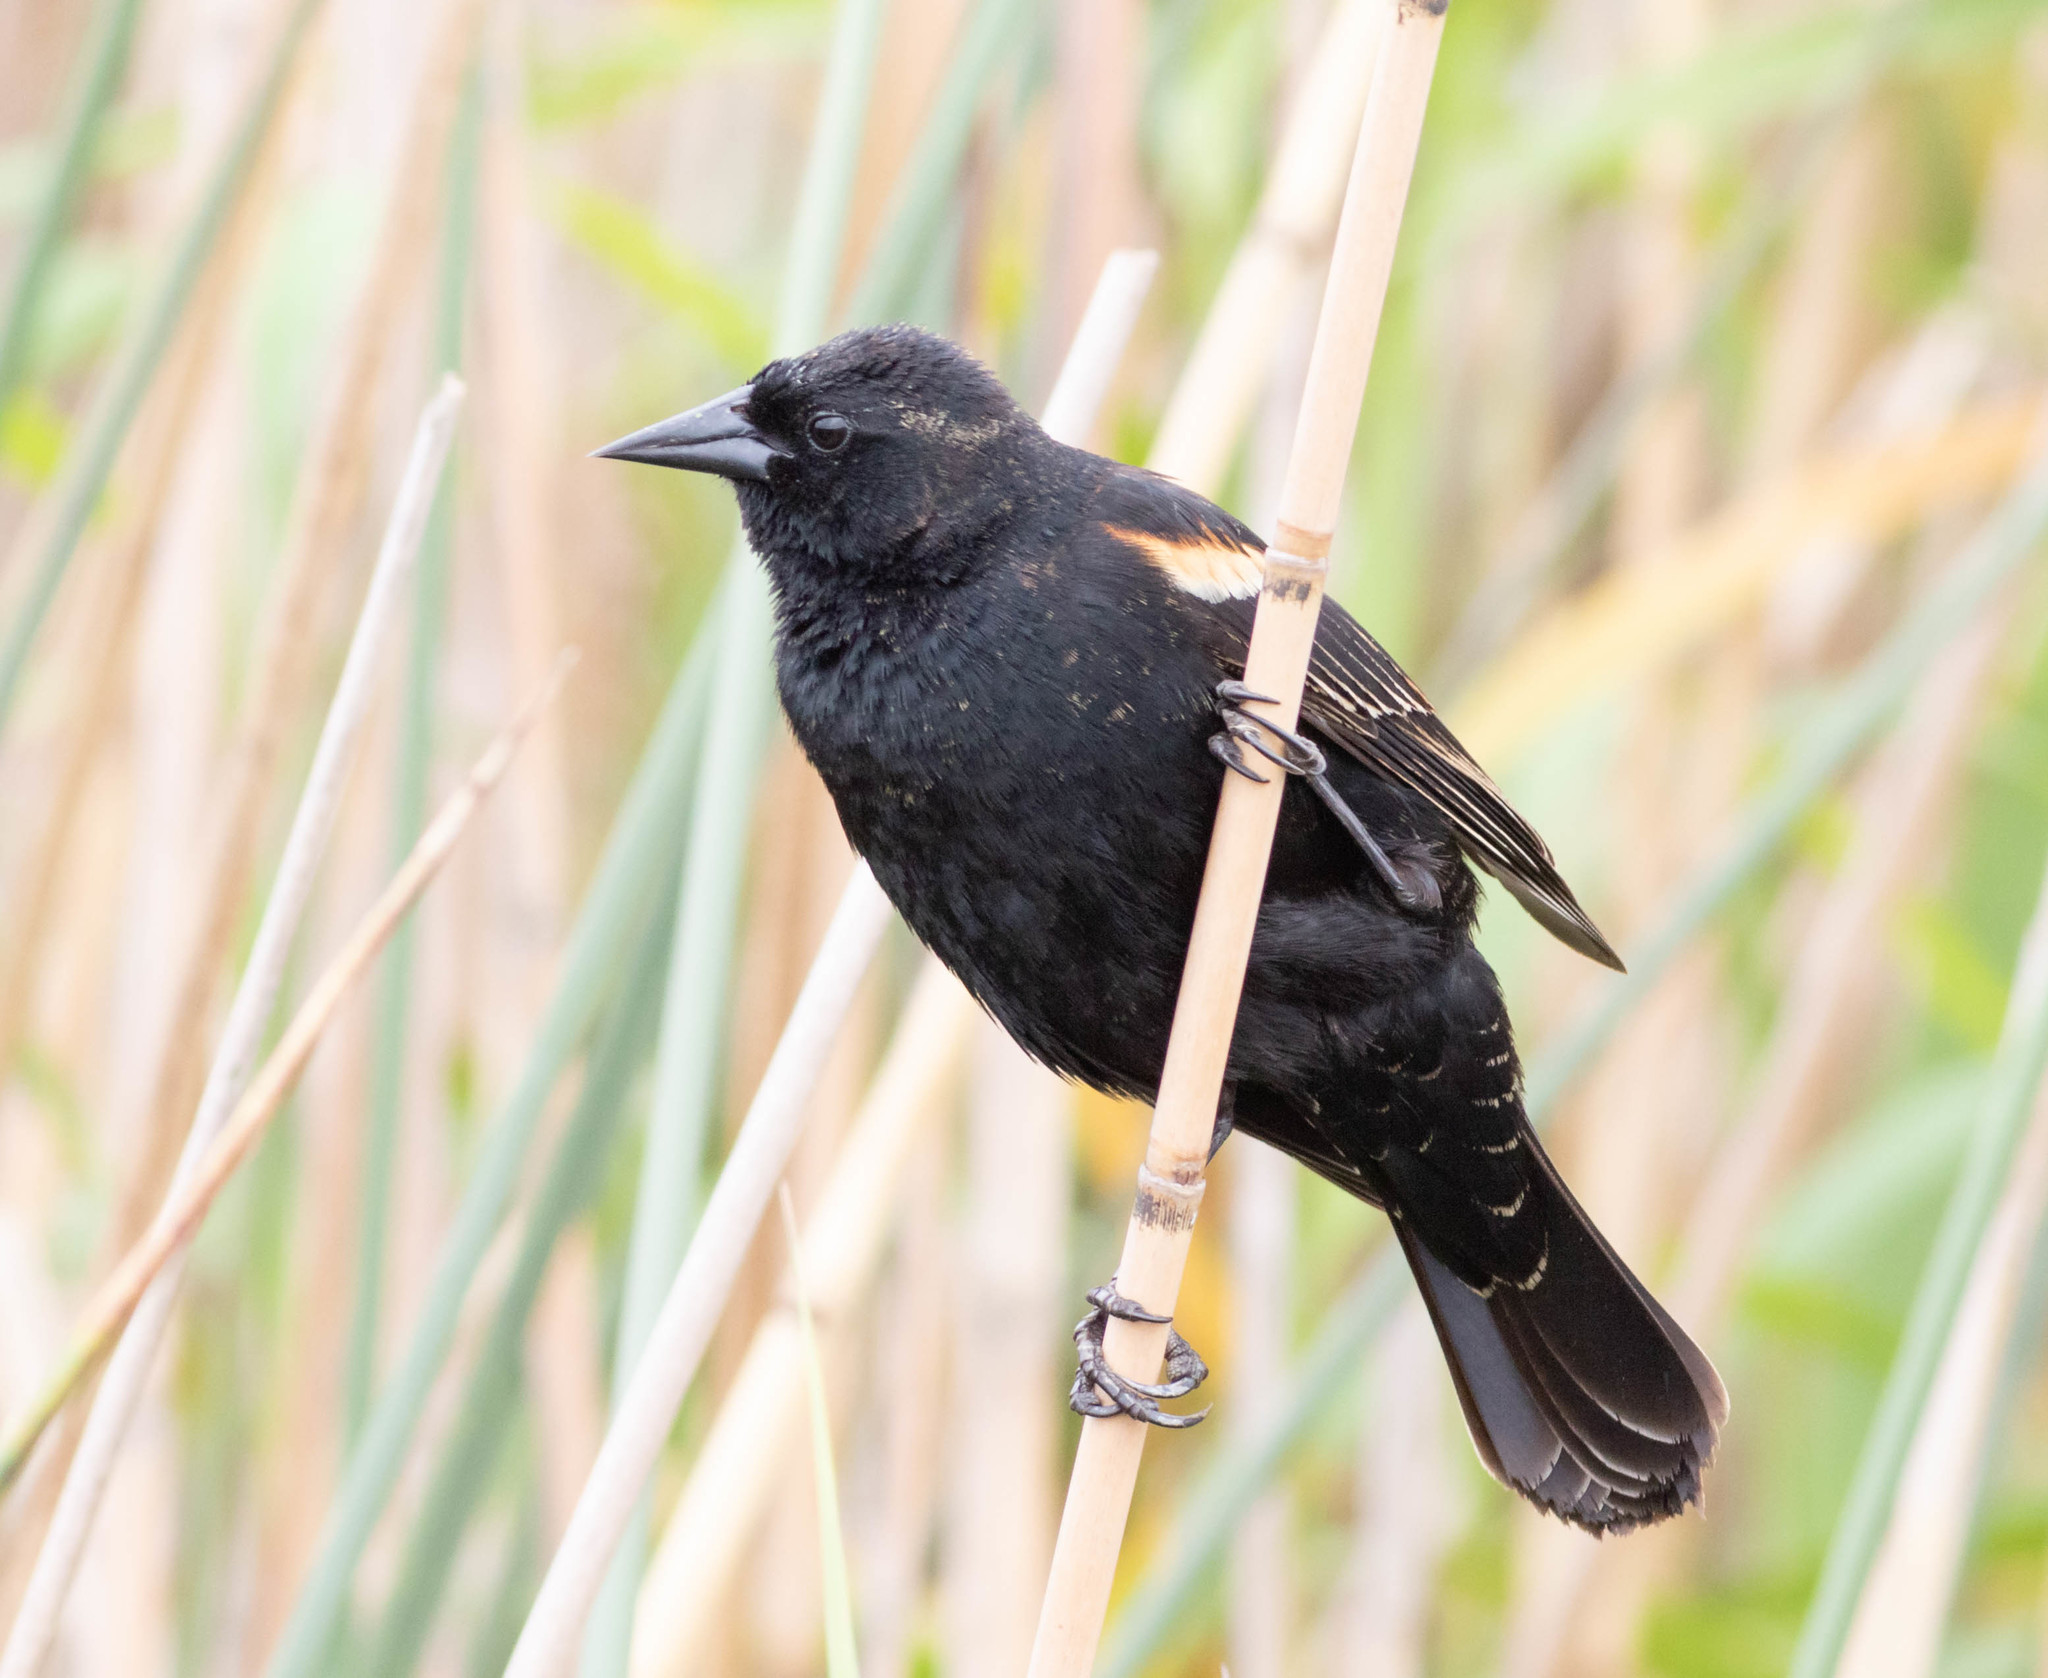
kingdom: Animalia
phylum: Chordata
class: Aves
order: Passeriformes
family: Icteridae
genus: Agelaius
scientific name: Agelaius phoeniceus
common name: Red-winged blackbird
